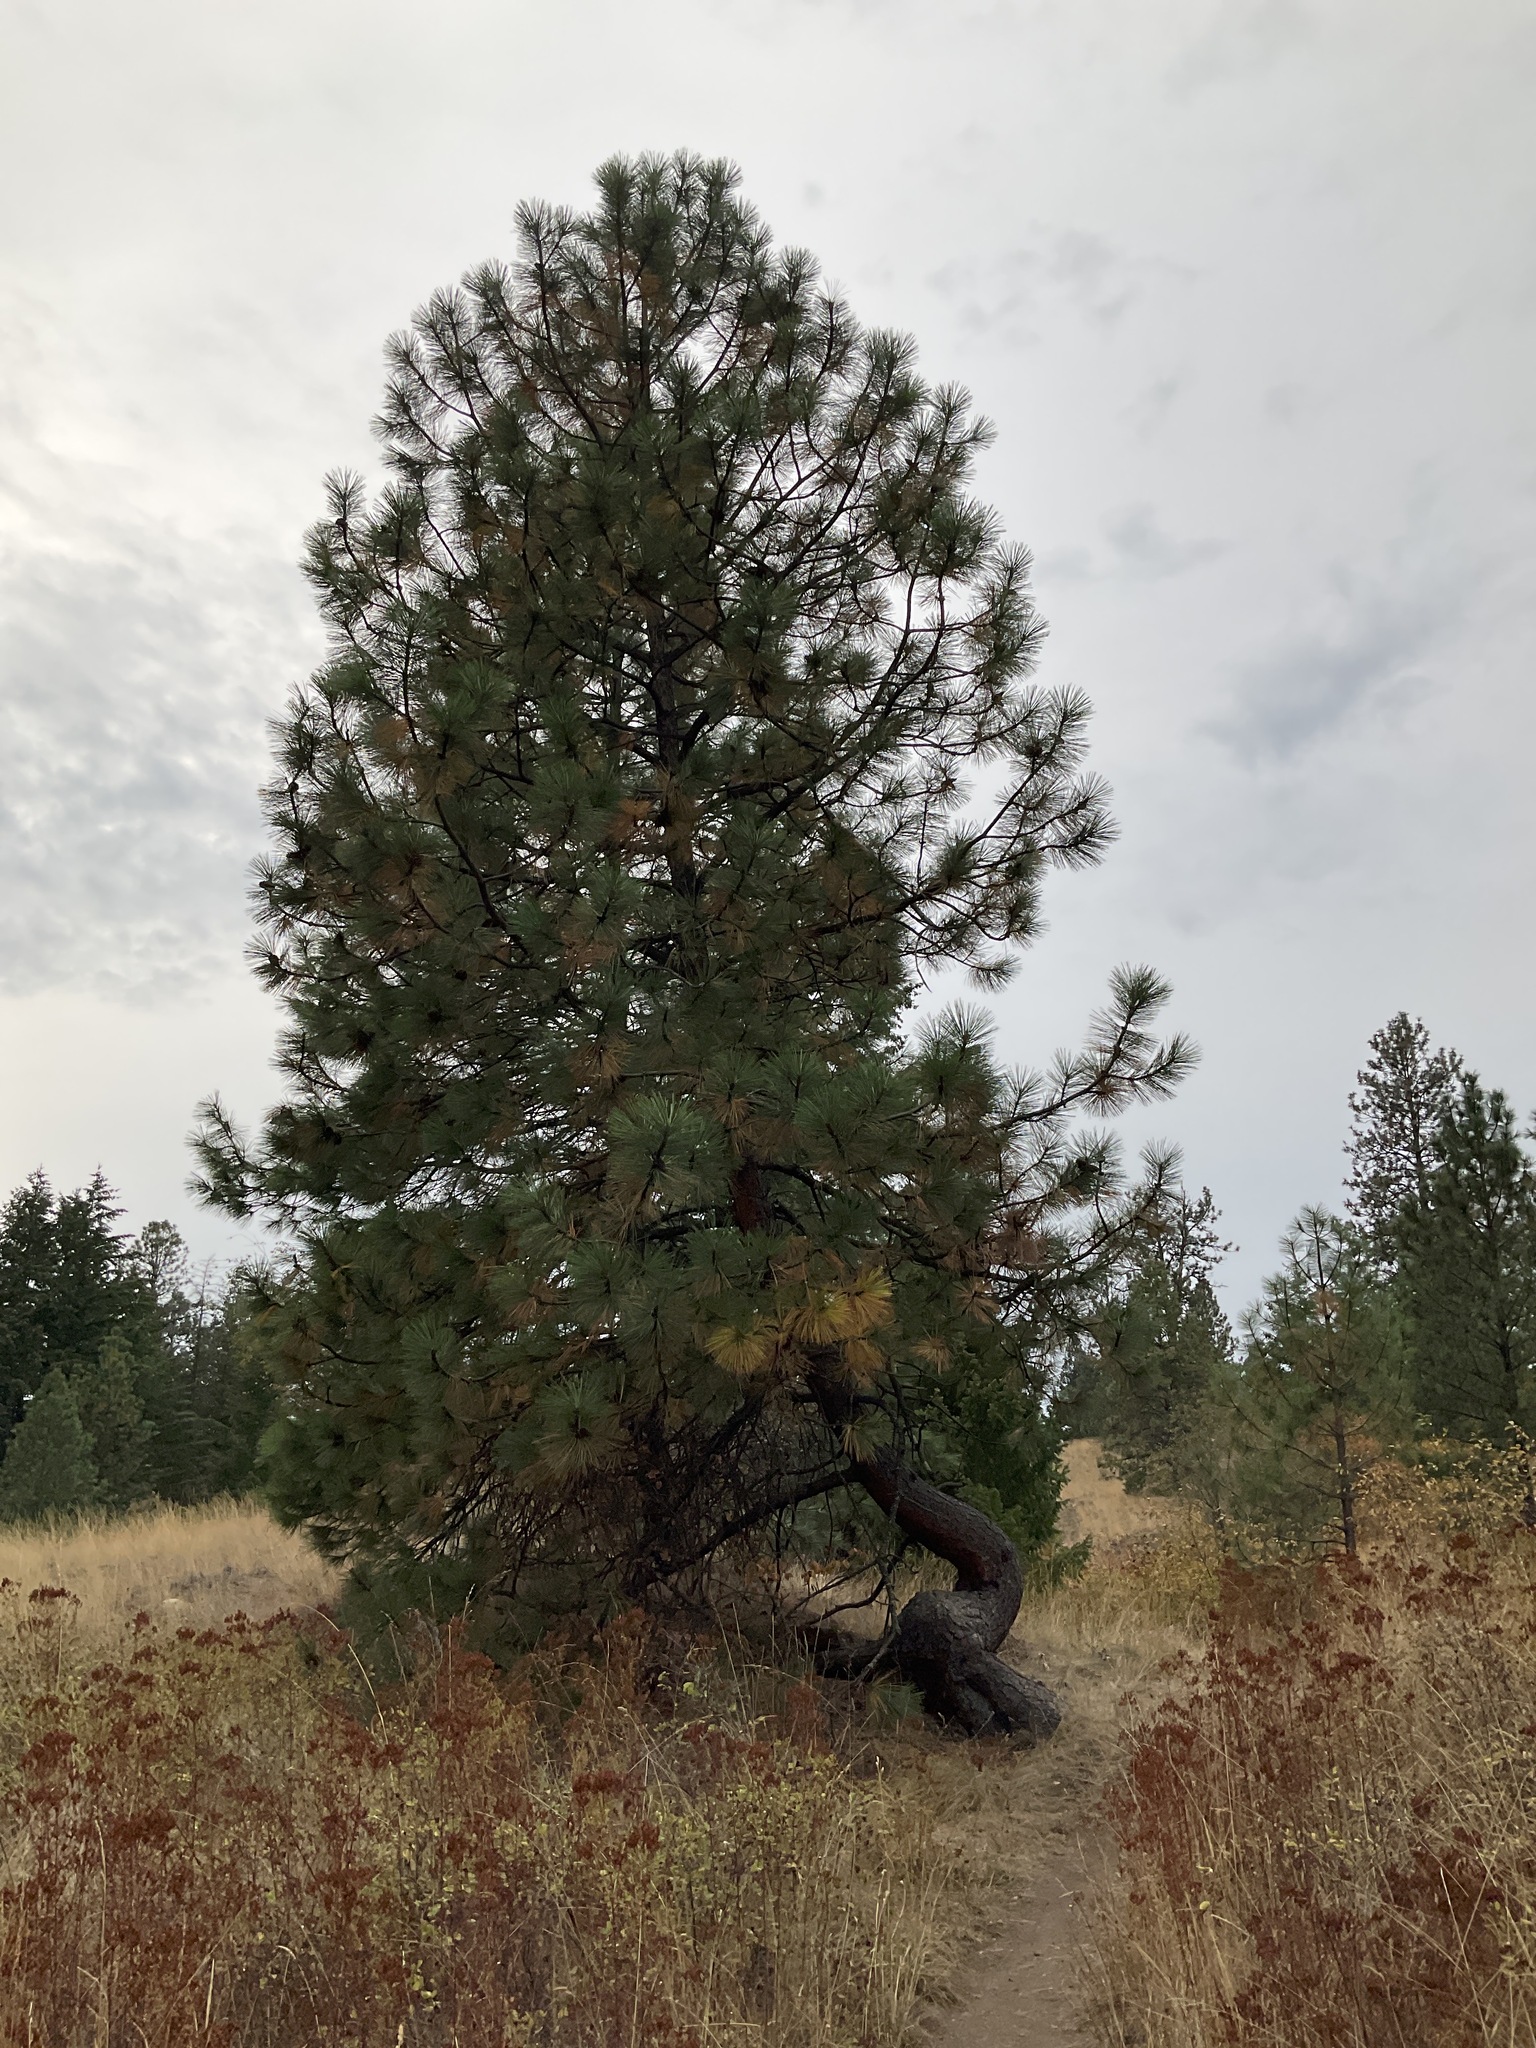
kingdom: Plantae
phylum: Tracheophyta
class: Pinopsida
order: Pinales
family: Pinaceae
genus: Pinus
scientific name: Pinus ponderosa
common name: Western yellow-pine
